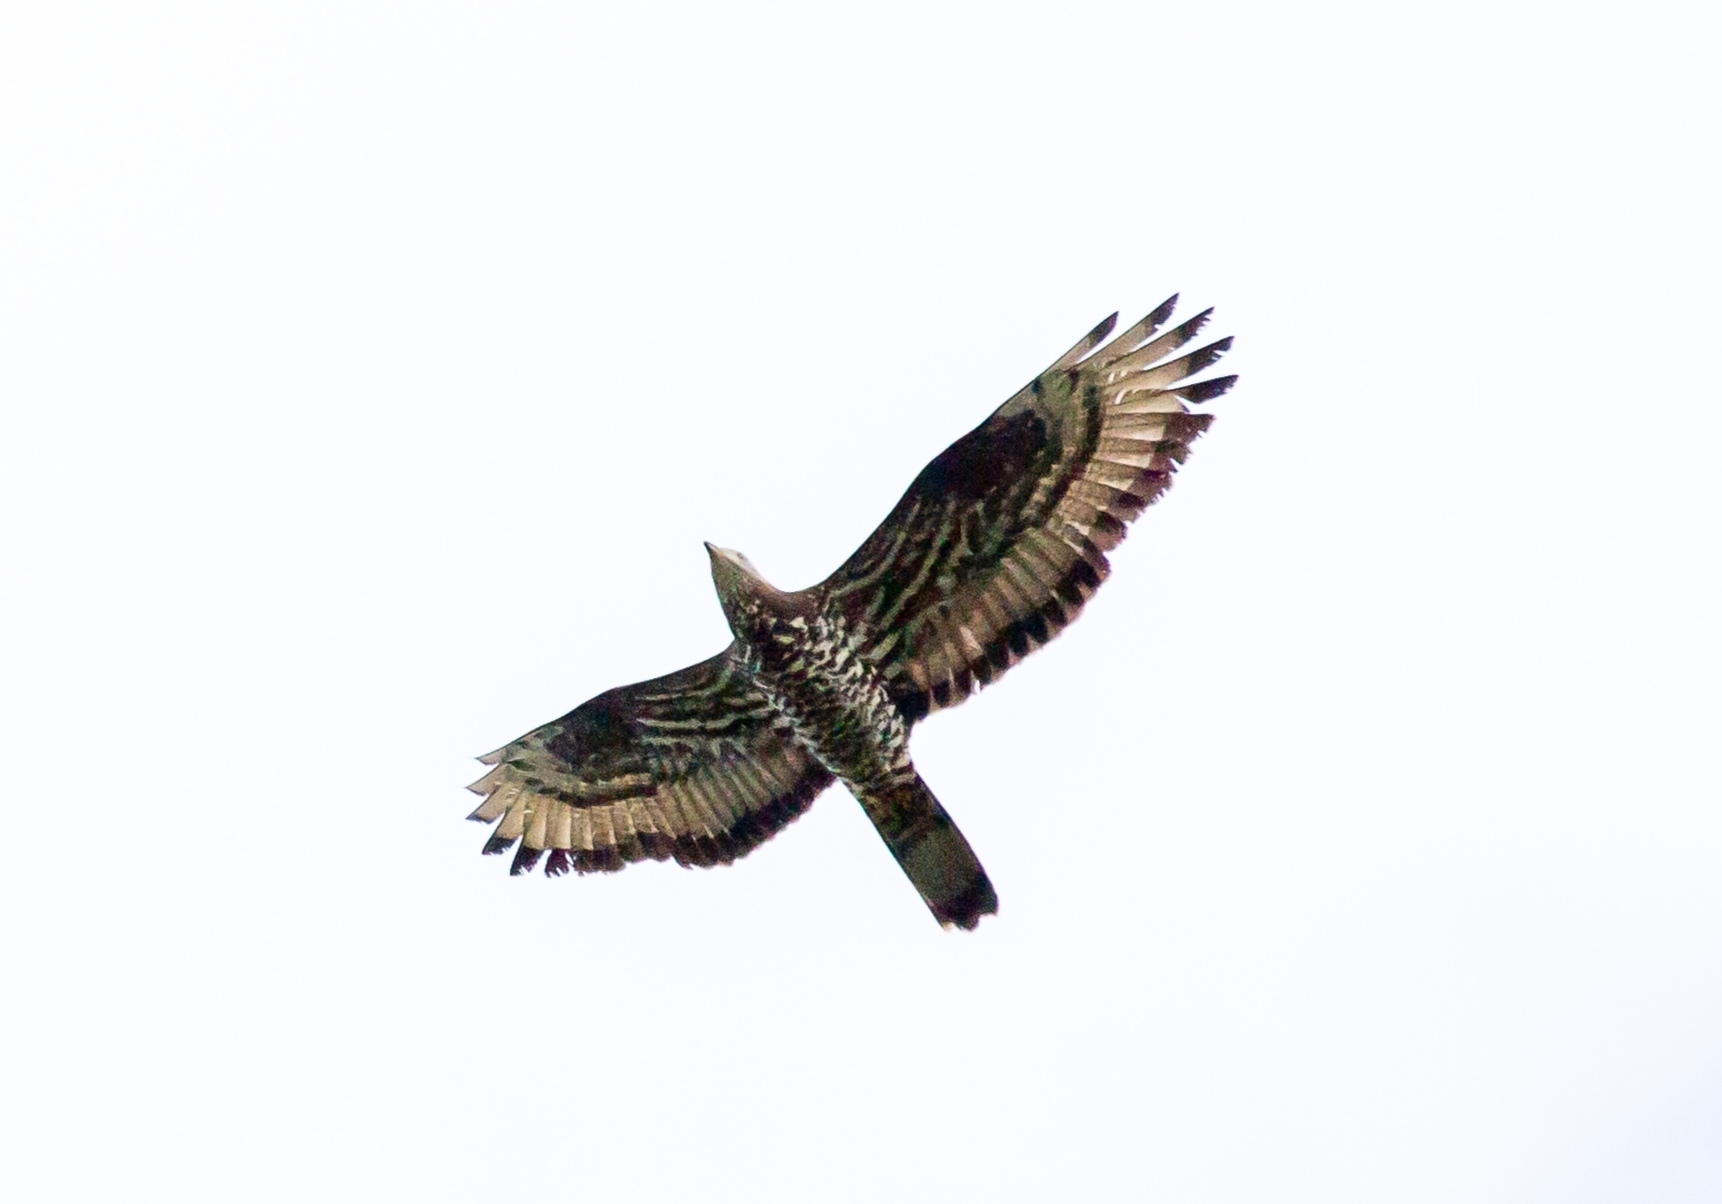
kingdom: Animalia
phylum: Chordata
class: Aves
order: Accipitriformes
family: Accipitridae
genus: Pernis
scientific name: Pernis apivorus
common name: European honey buzzard
